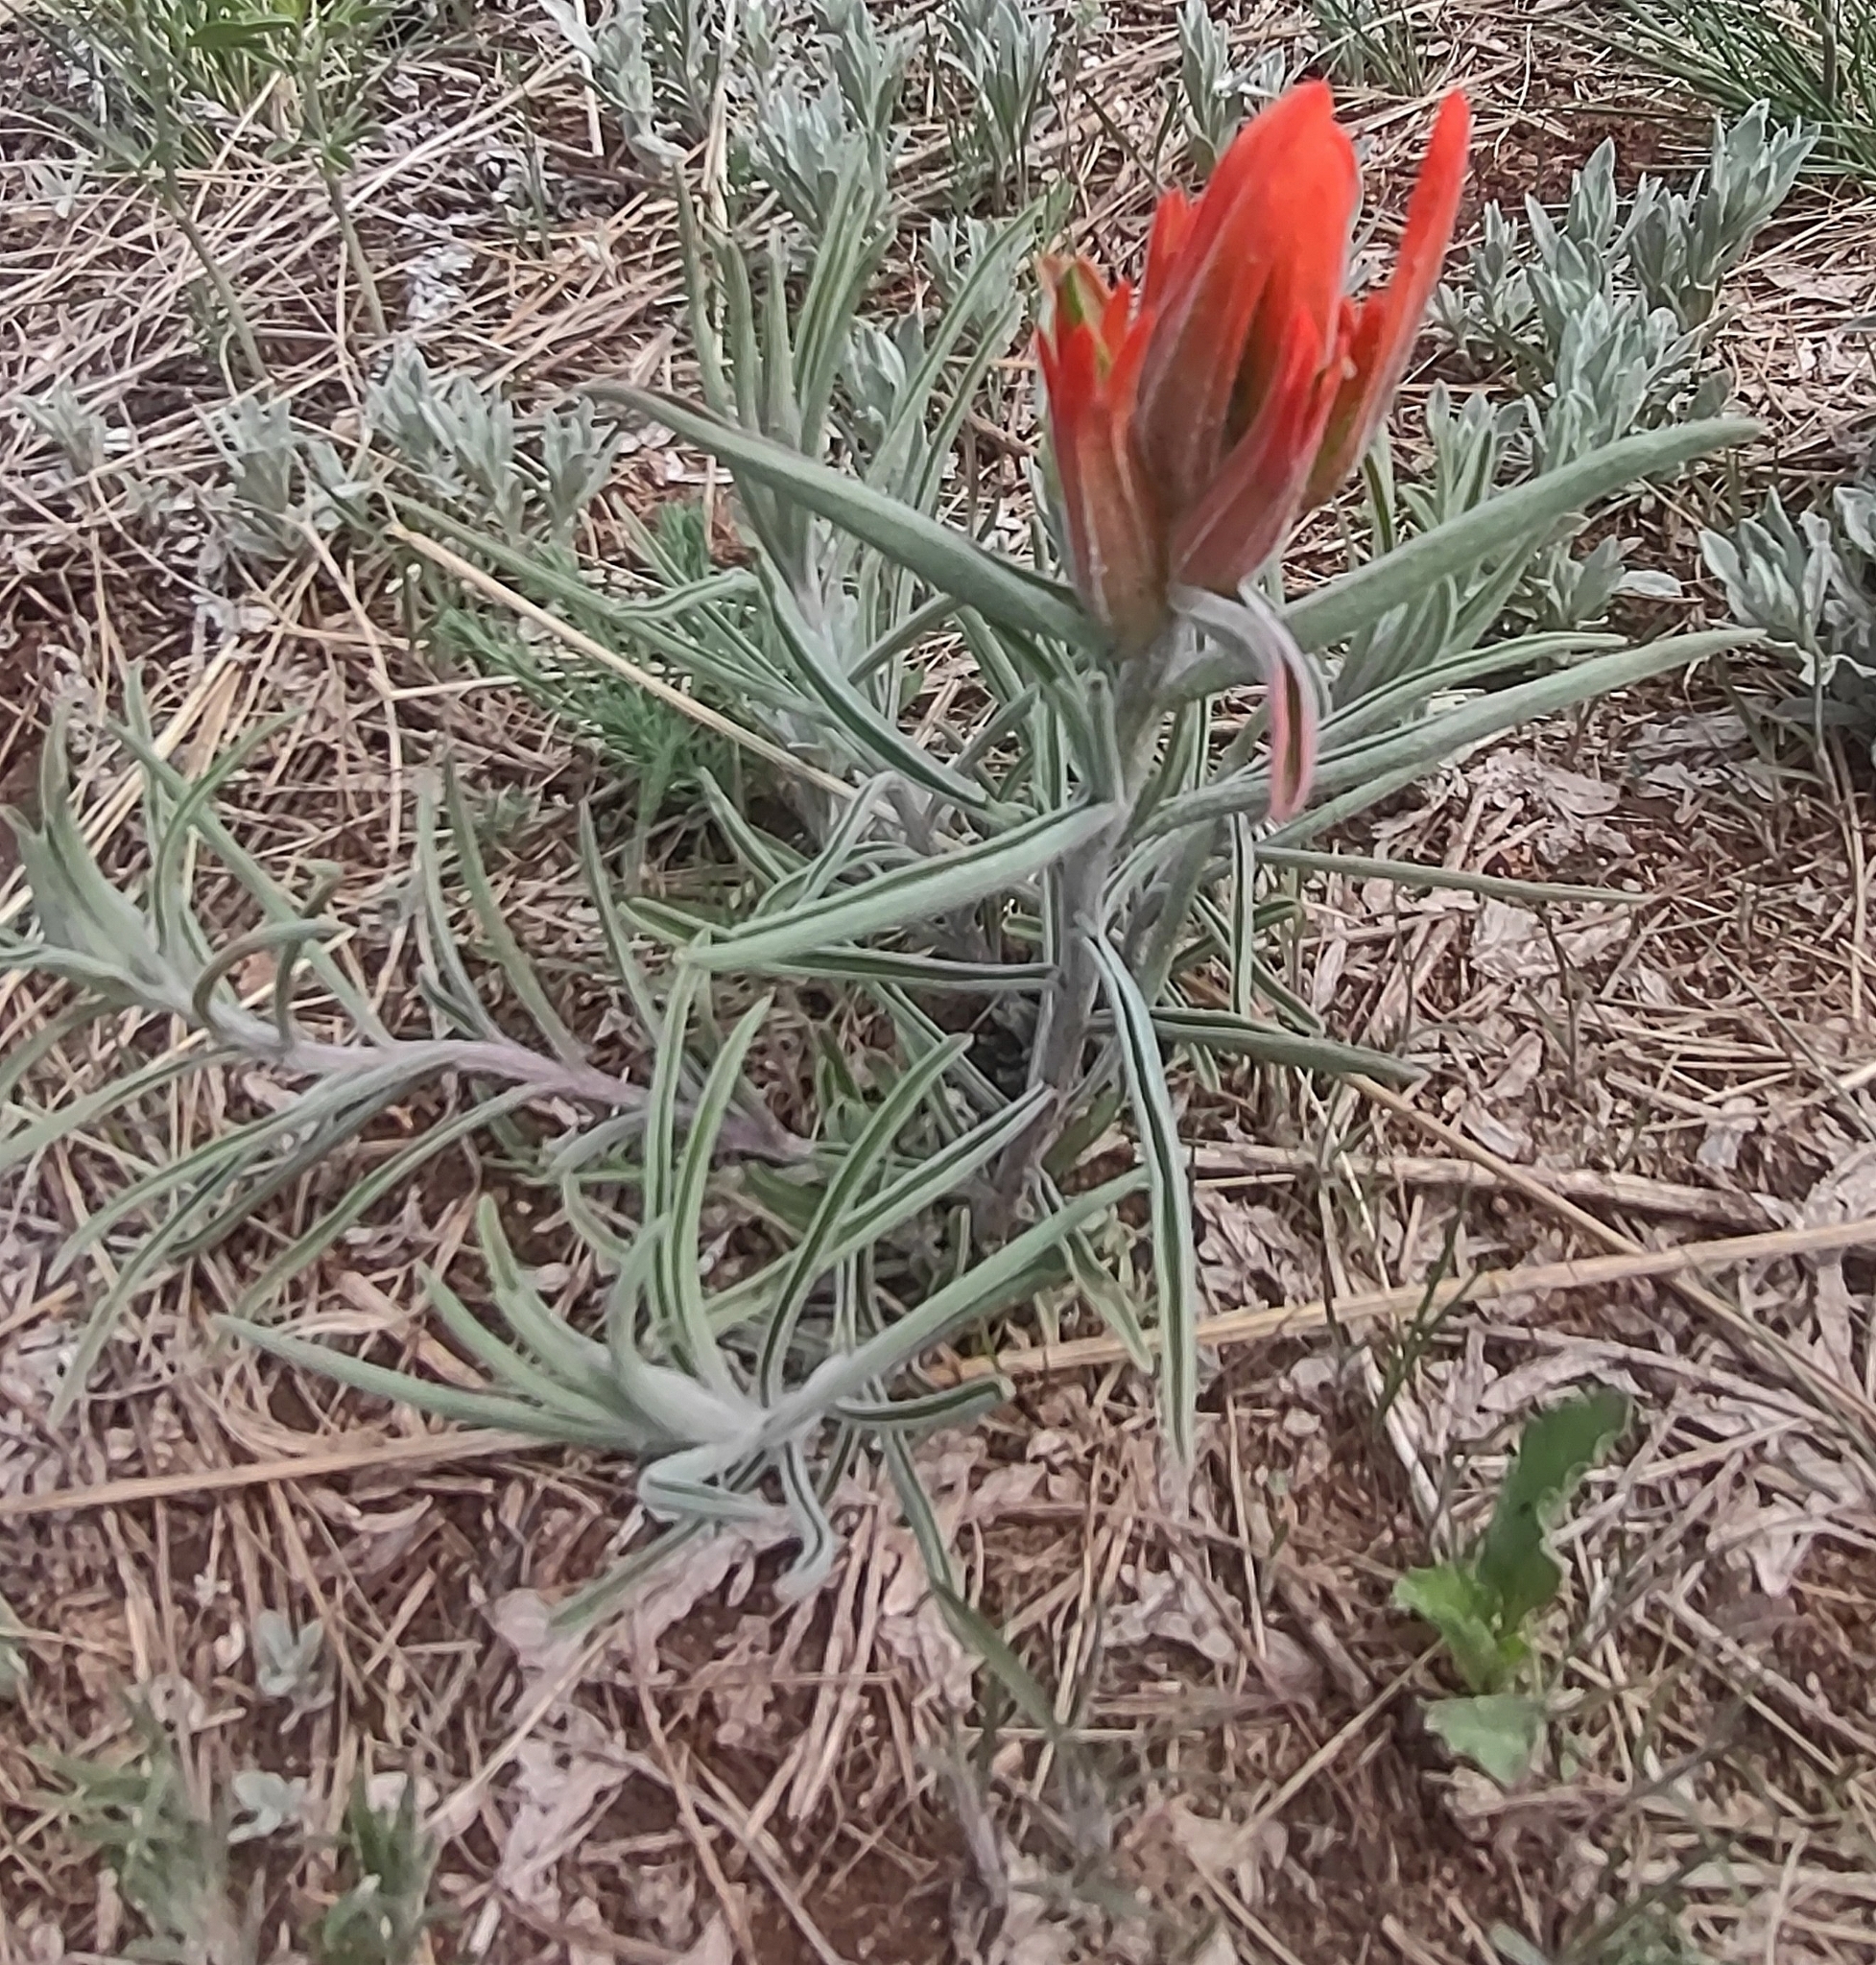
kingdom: Plantae
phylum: Tracheophyta
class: Magnoliopsida
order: Lamiales
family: Orobanchaceae
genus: Castilleja
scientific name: Castilleja integra
